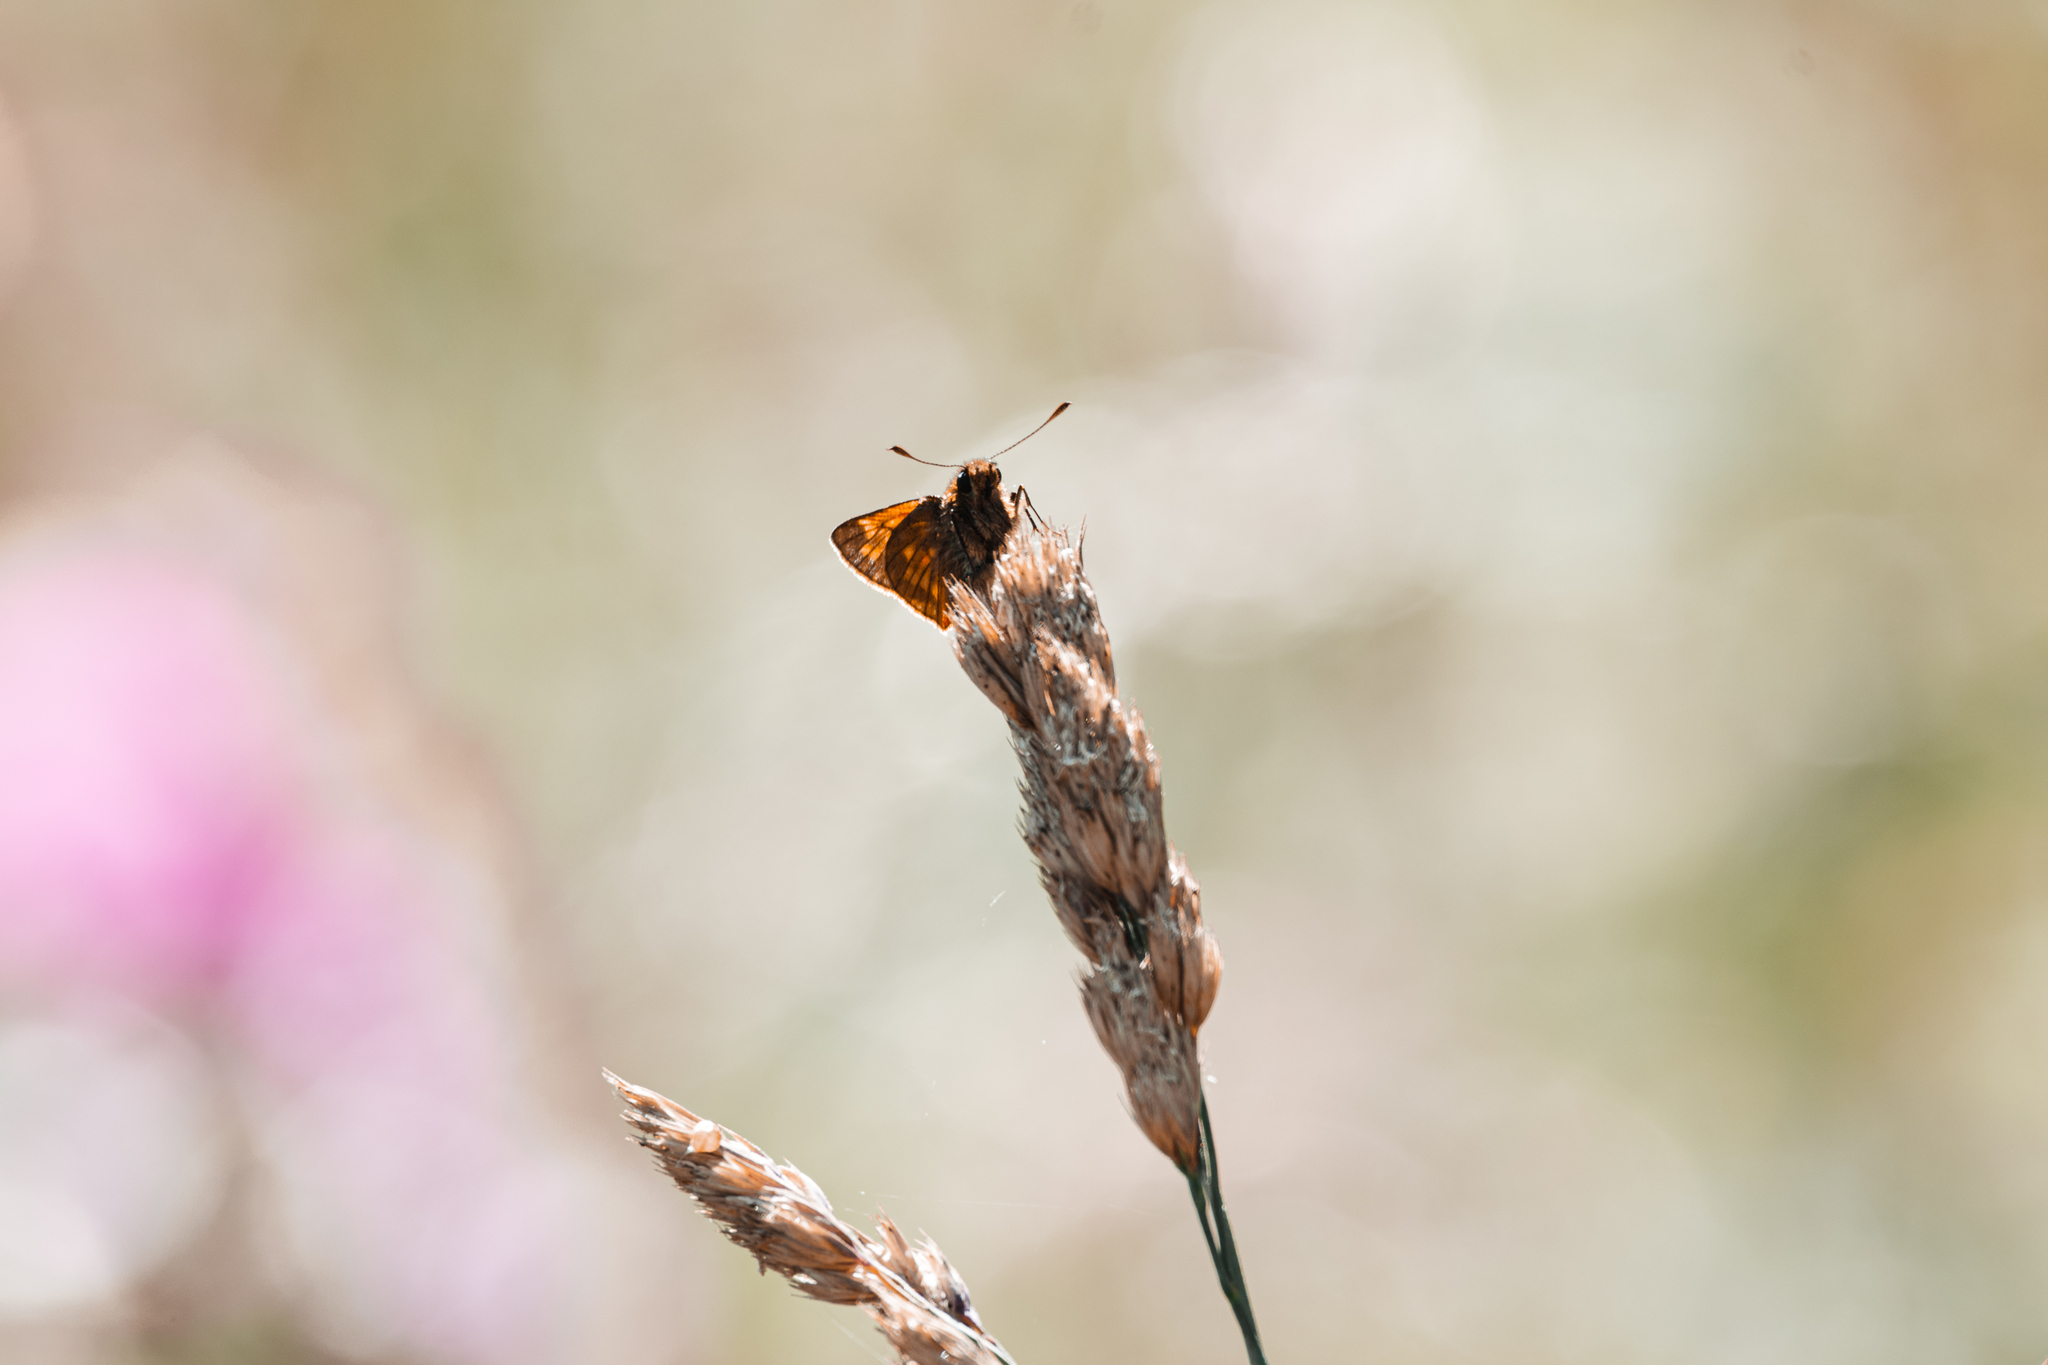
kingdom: Animalia
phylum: Arthropoda
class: Insecta
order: Lepidoptera
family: Hesperiidae
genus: Ochlodes
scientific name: Ochlodes venata
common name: Large skipper
